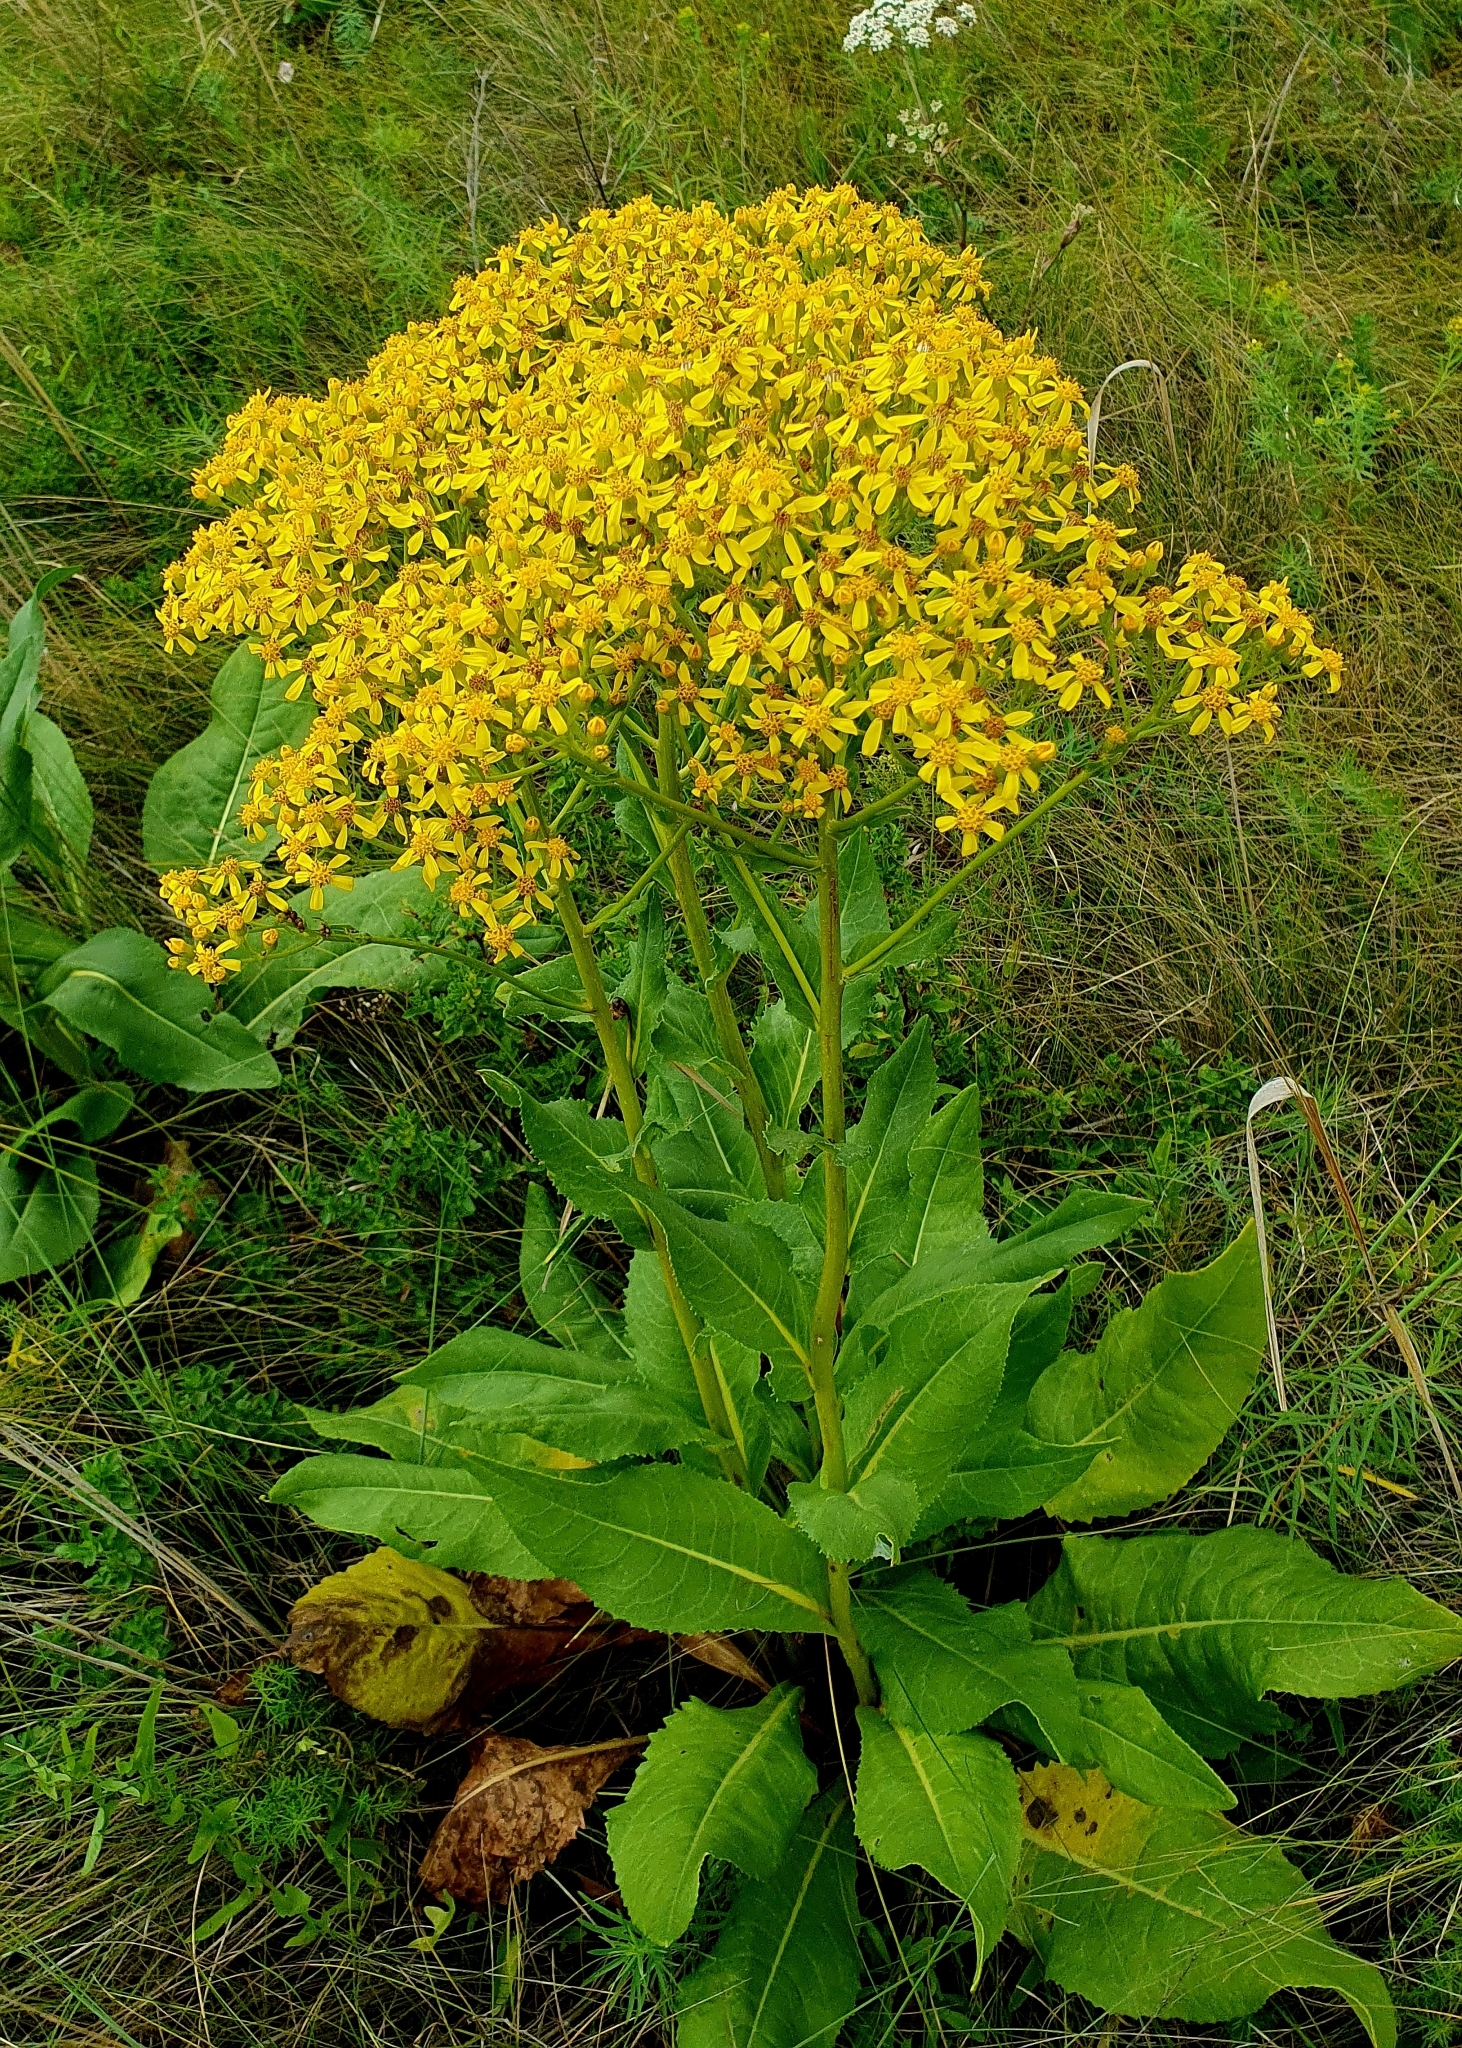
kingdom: Plantae
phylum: Tracheophyta
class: Magnoliopsida
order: Asterales
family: Asteraceae
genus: Senecio
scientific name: Senecio doria
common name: Golden ragwort
